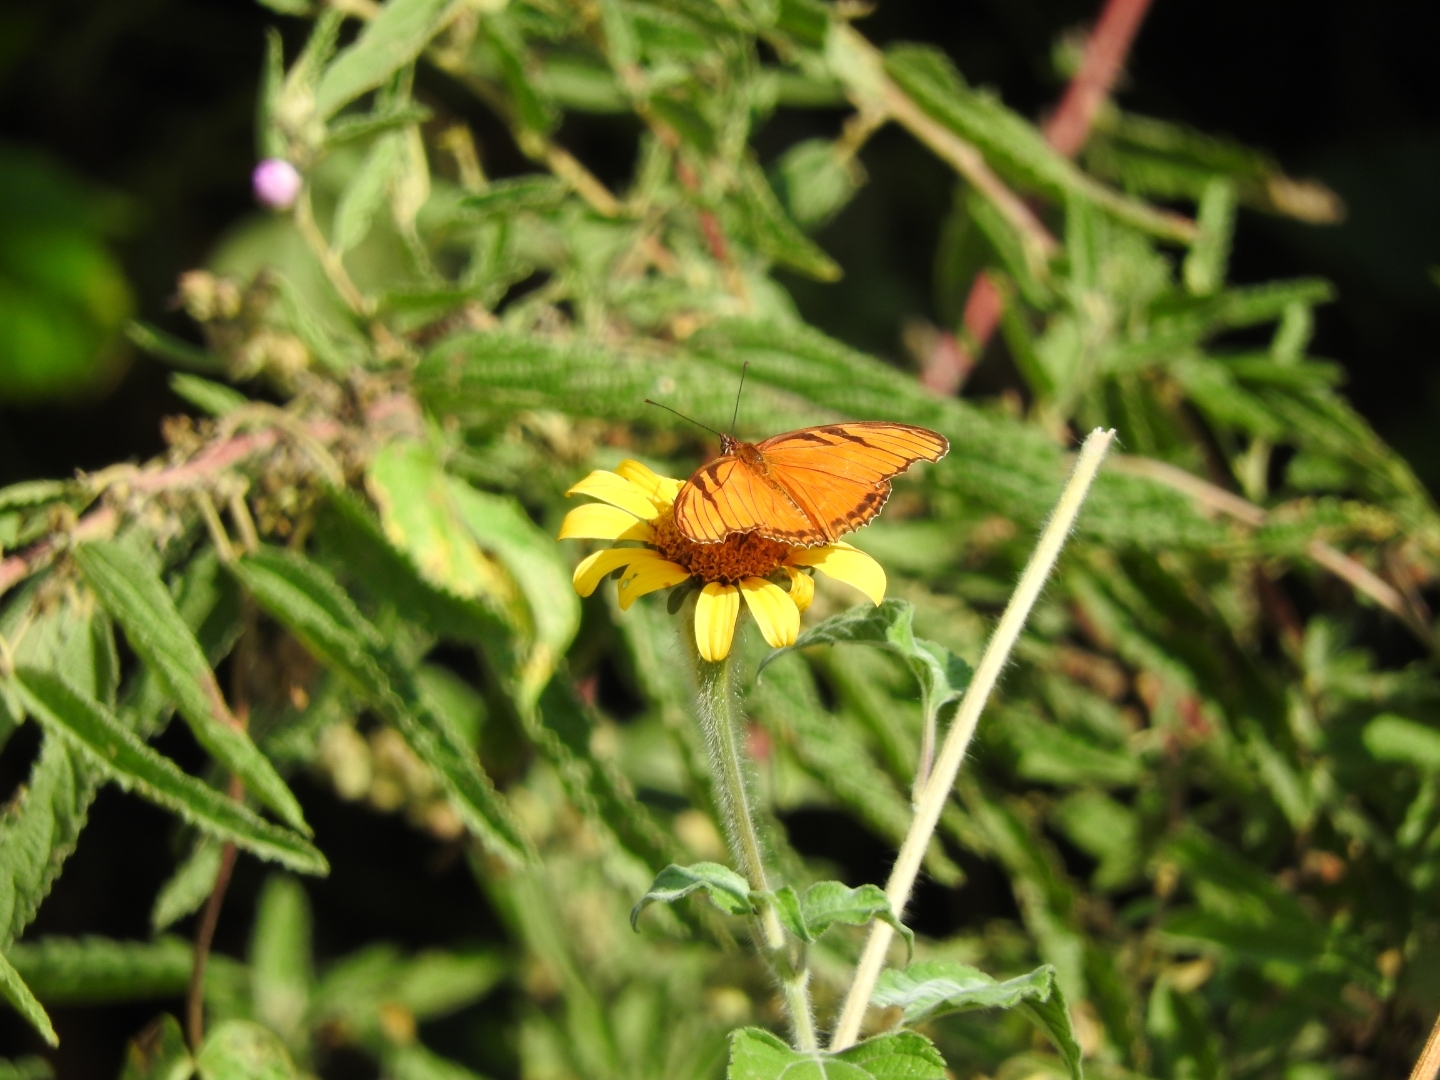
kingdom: Animalia
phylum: Arthropoda
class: Insecta
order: Lepidoptera
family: Nymphalidae
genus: Dione
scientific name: Dione juno
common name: Juno silverspot
